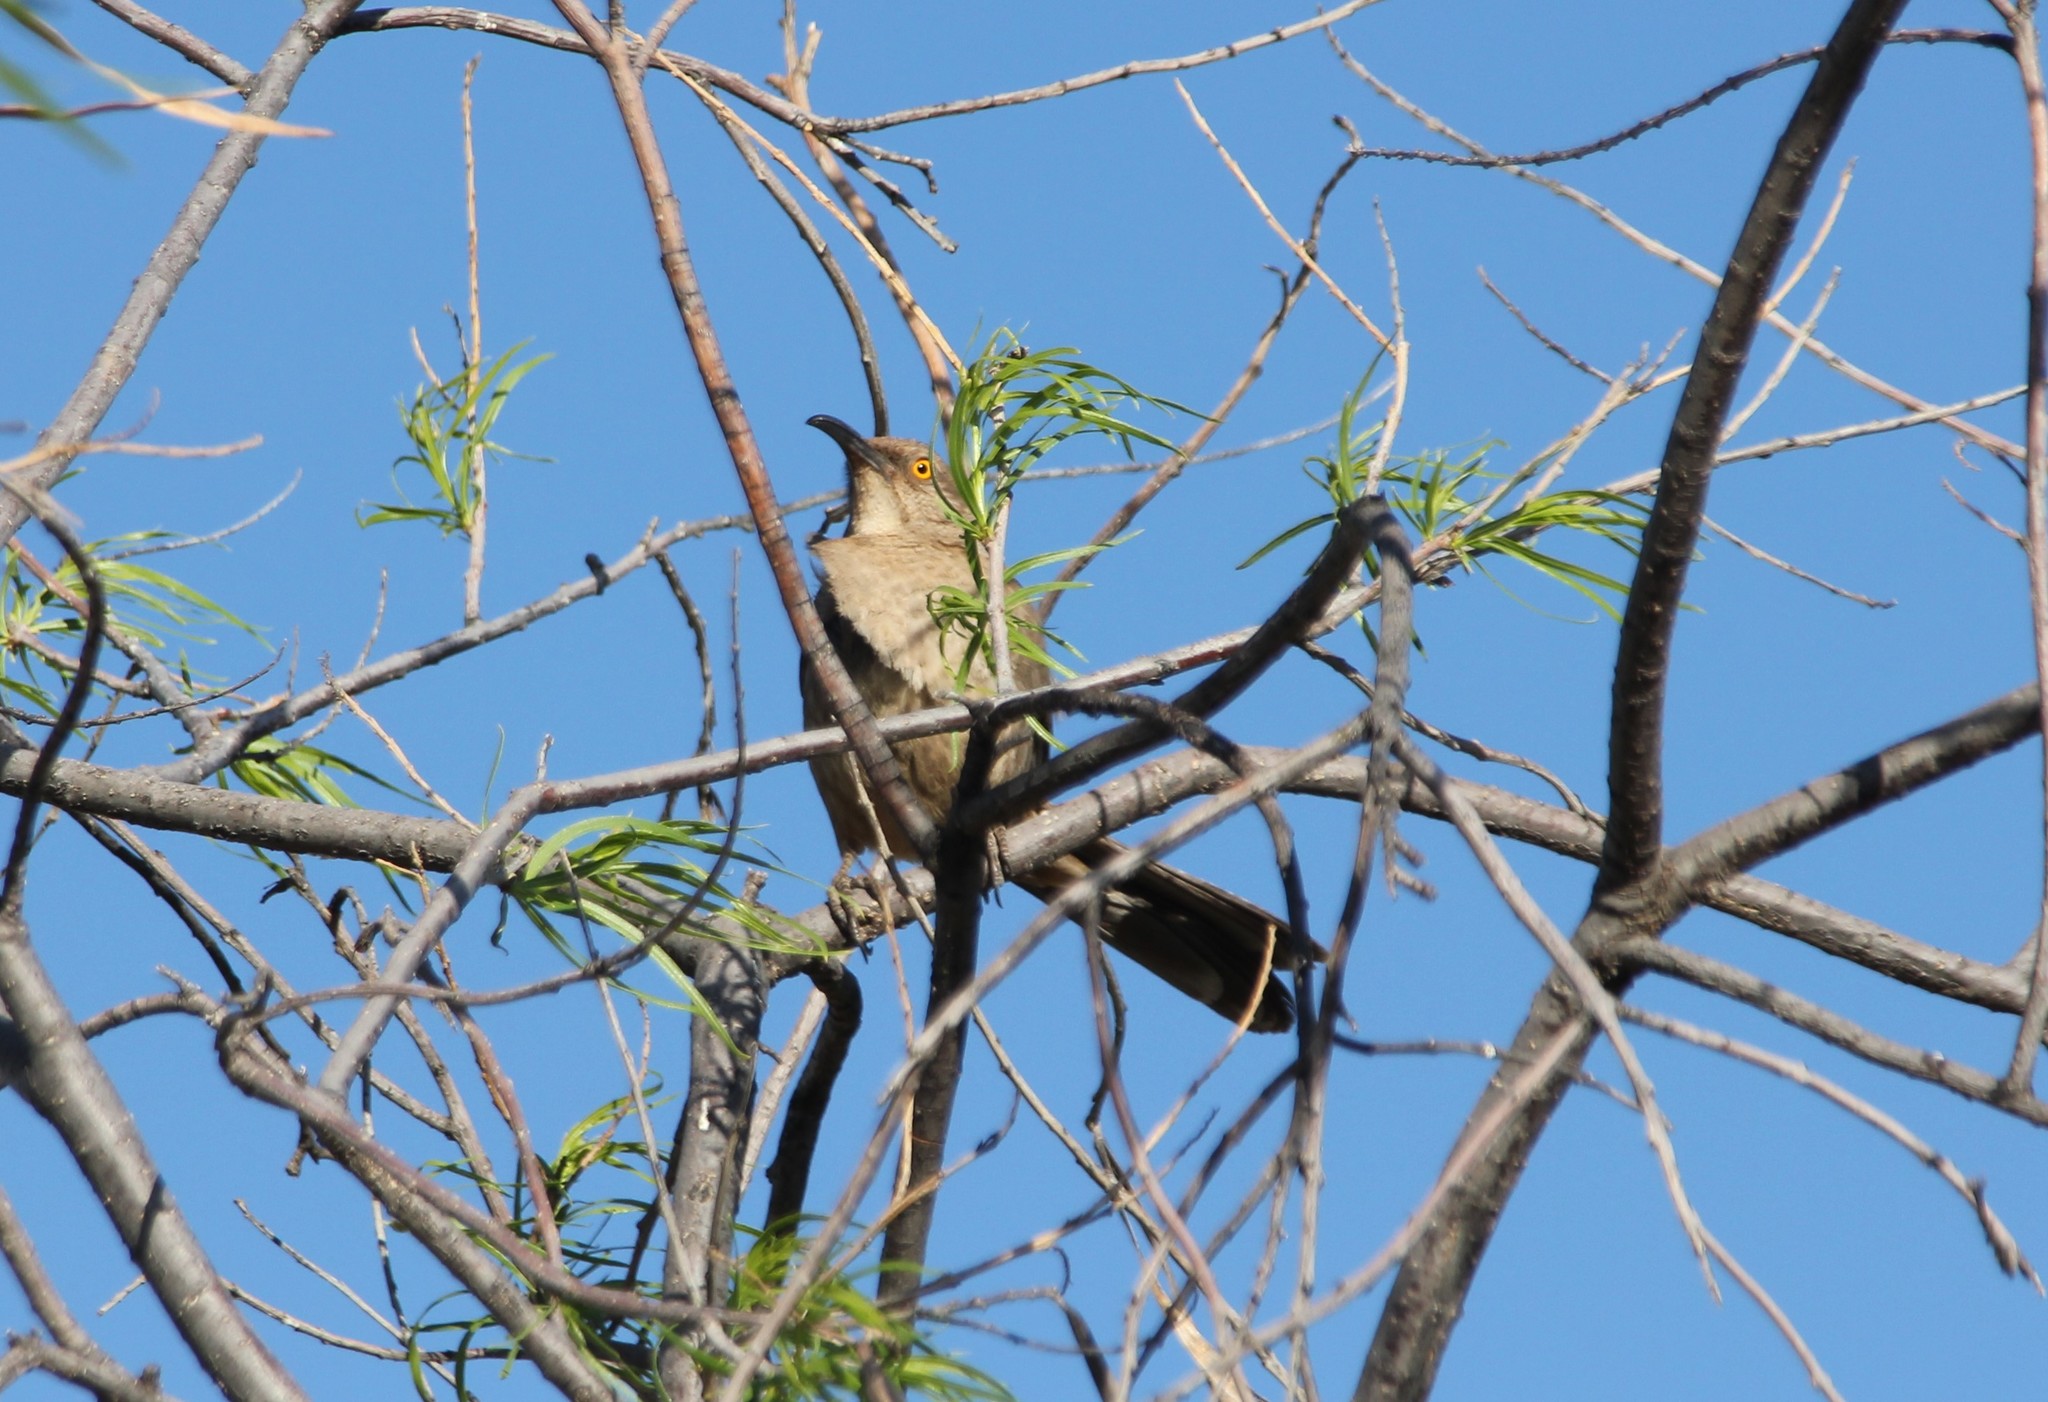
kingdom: Animalia
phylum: Chordata
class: Aves
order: Passeriformes
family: Mimidae
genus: Toxostoma
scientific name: Toxostoma curvirostre
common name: Curve-billed thrasher
